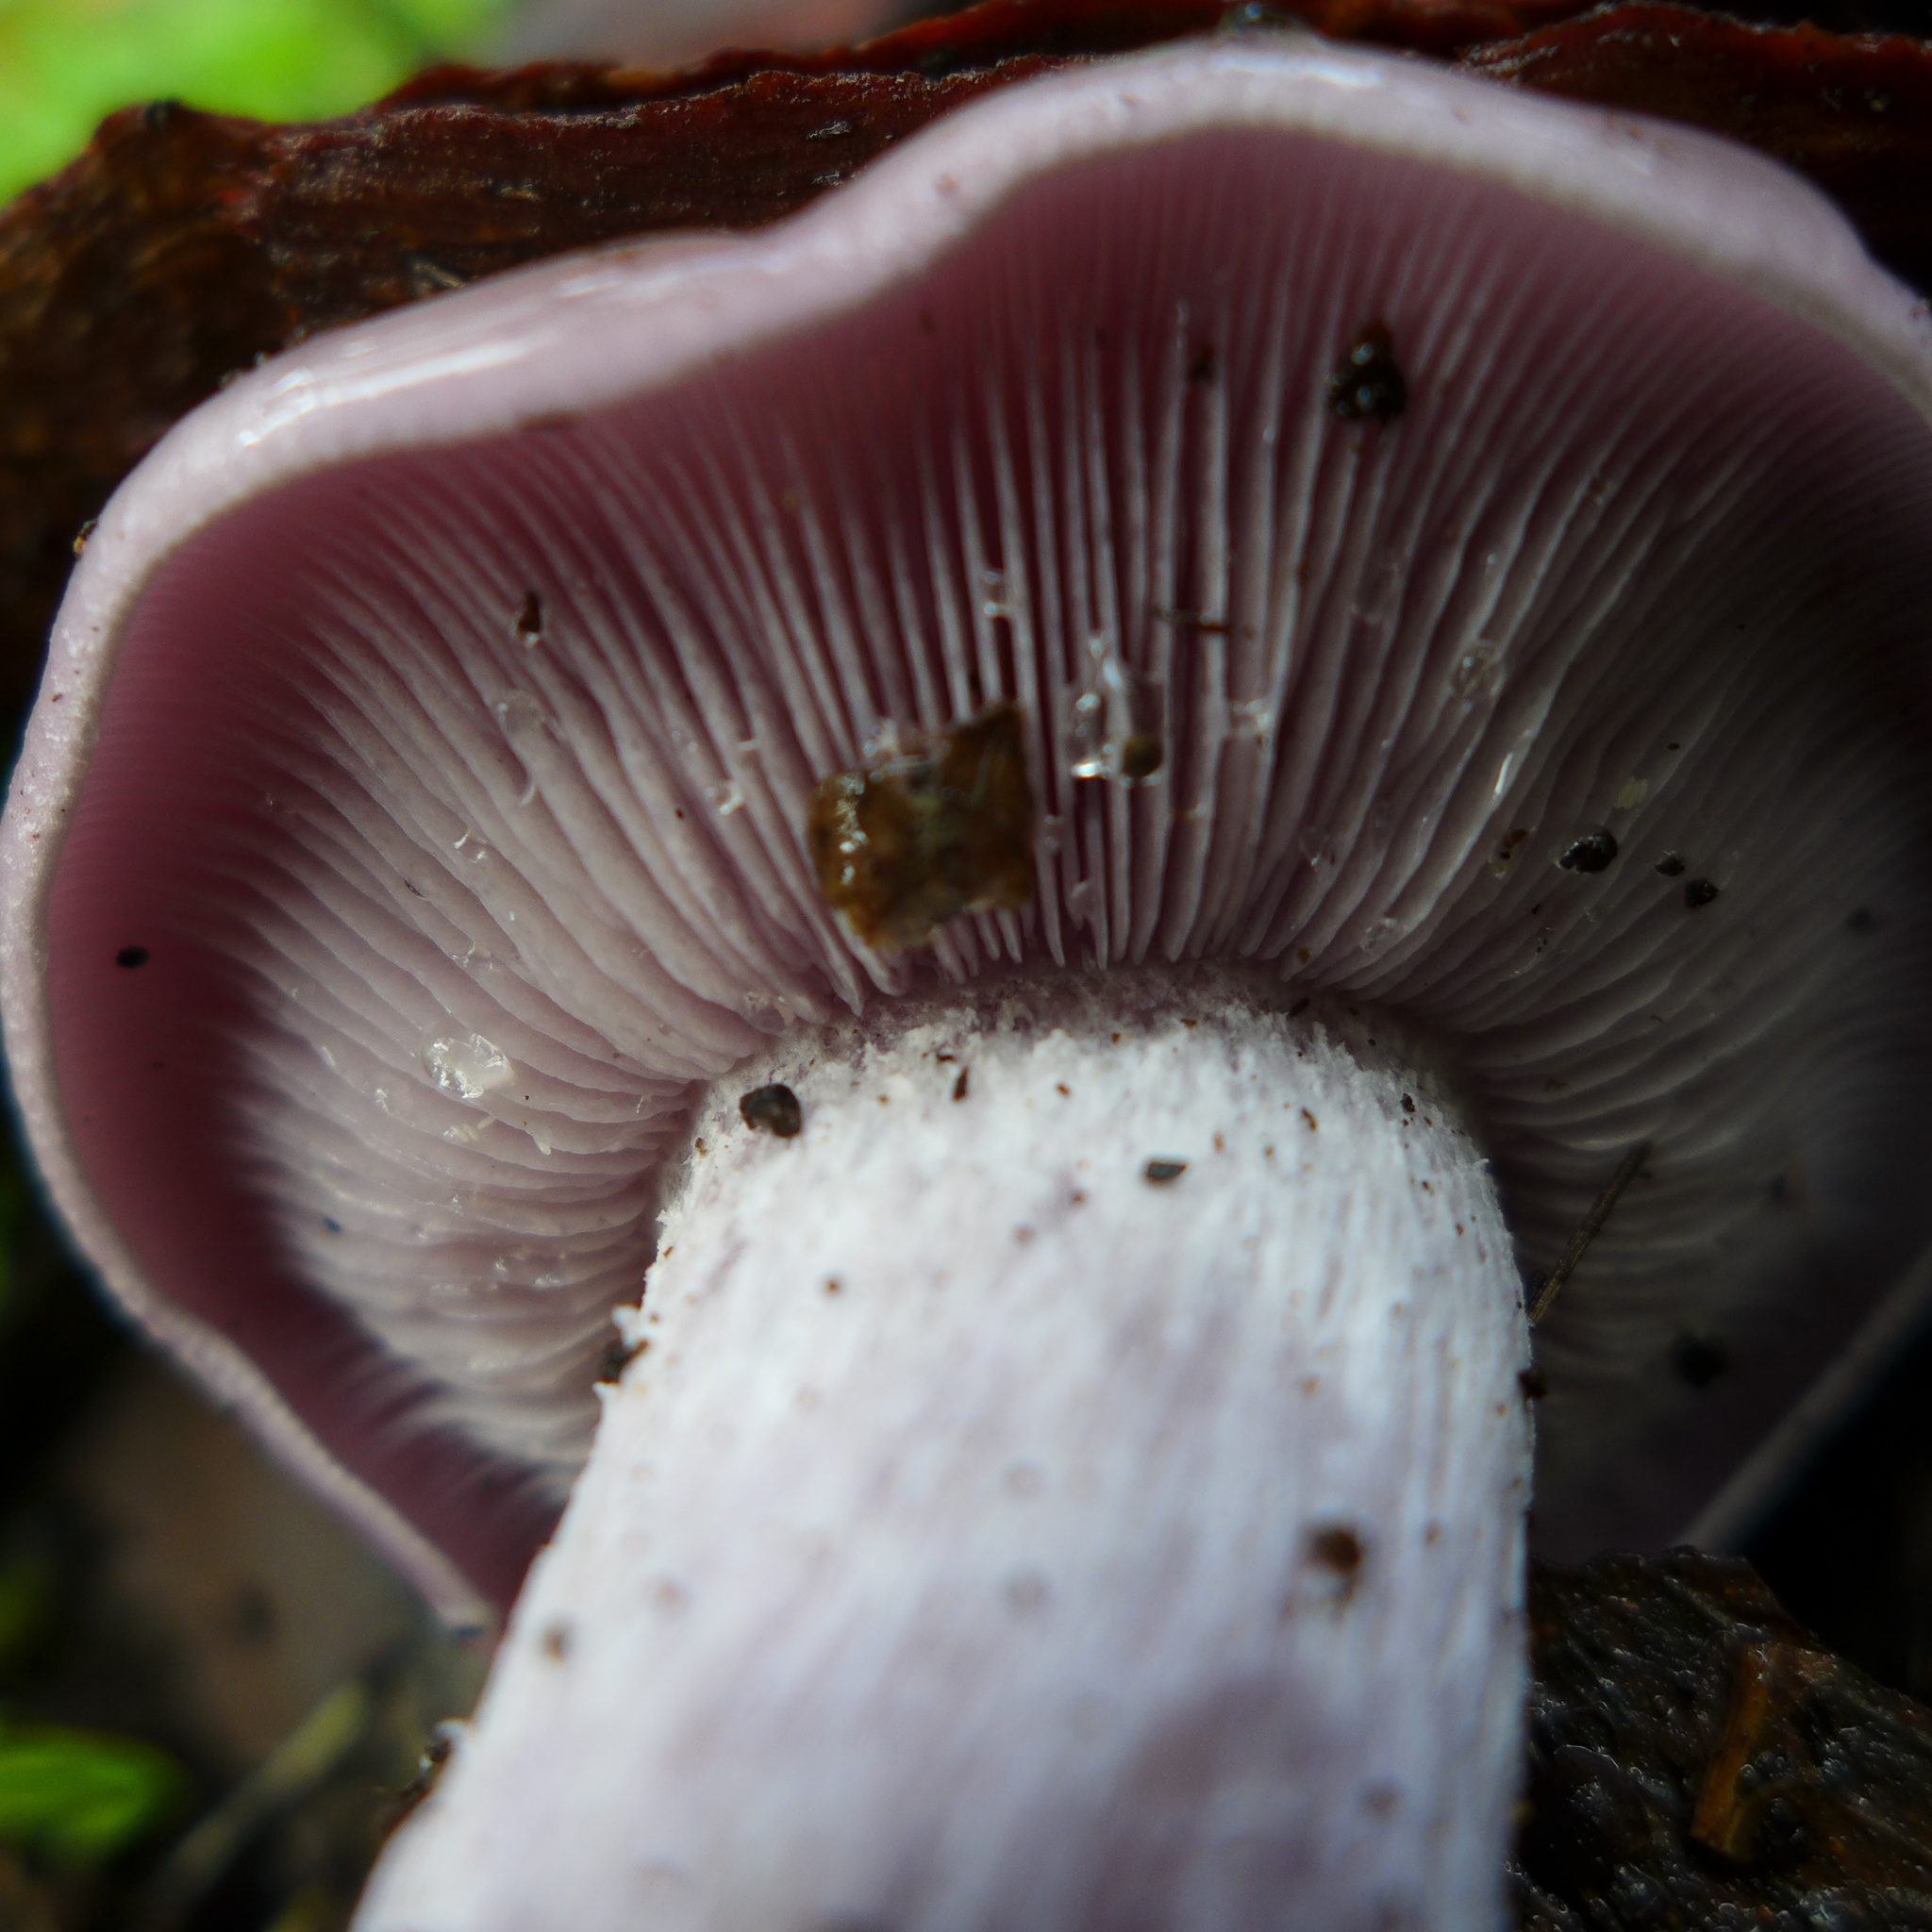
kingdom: Fungi
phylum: Basidiomycota
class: Agaricomycetes
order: Agaricales
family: Tricholomataceae
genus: Collybia
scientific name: Collybia
